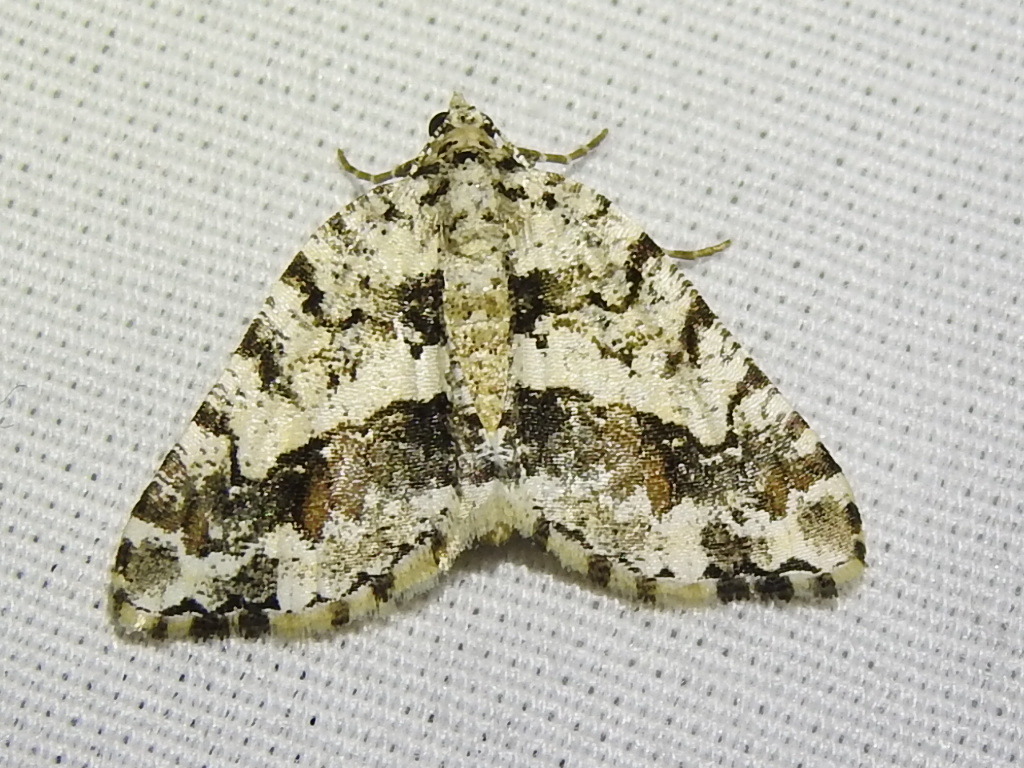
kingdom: Animalia
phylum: Arthropoda
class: Insecta
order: Lepidoptera
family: Geometridae
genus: Macaria
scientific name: Macaria graphidaria
